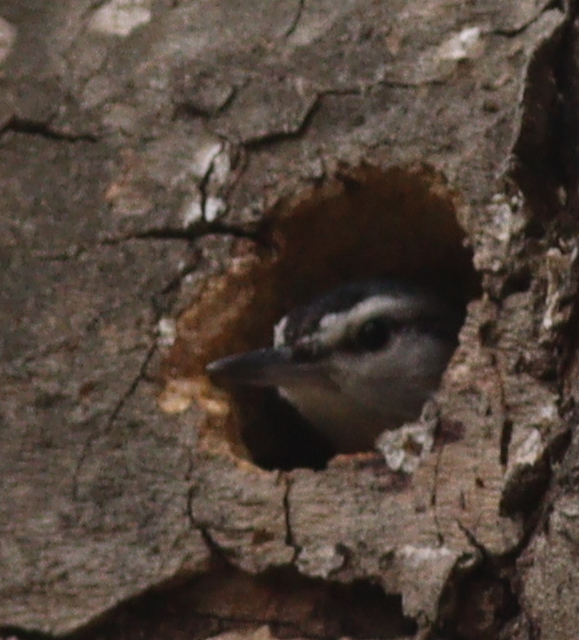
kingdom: Animalia
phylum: Chordata
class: Aves
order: Passeriformes
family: Sittidae
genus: Sitta
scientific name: Sitta krueperi
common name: Krüper's nuthatch
